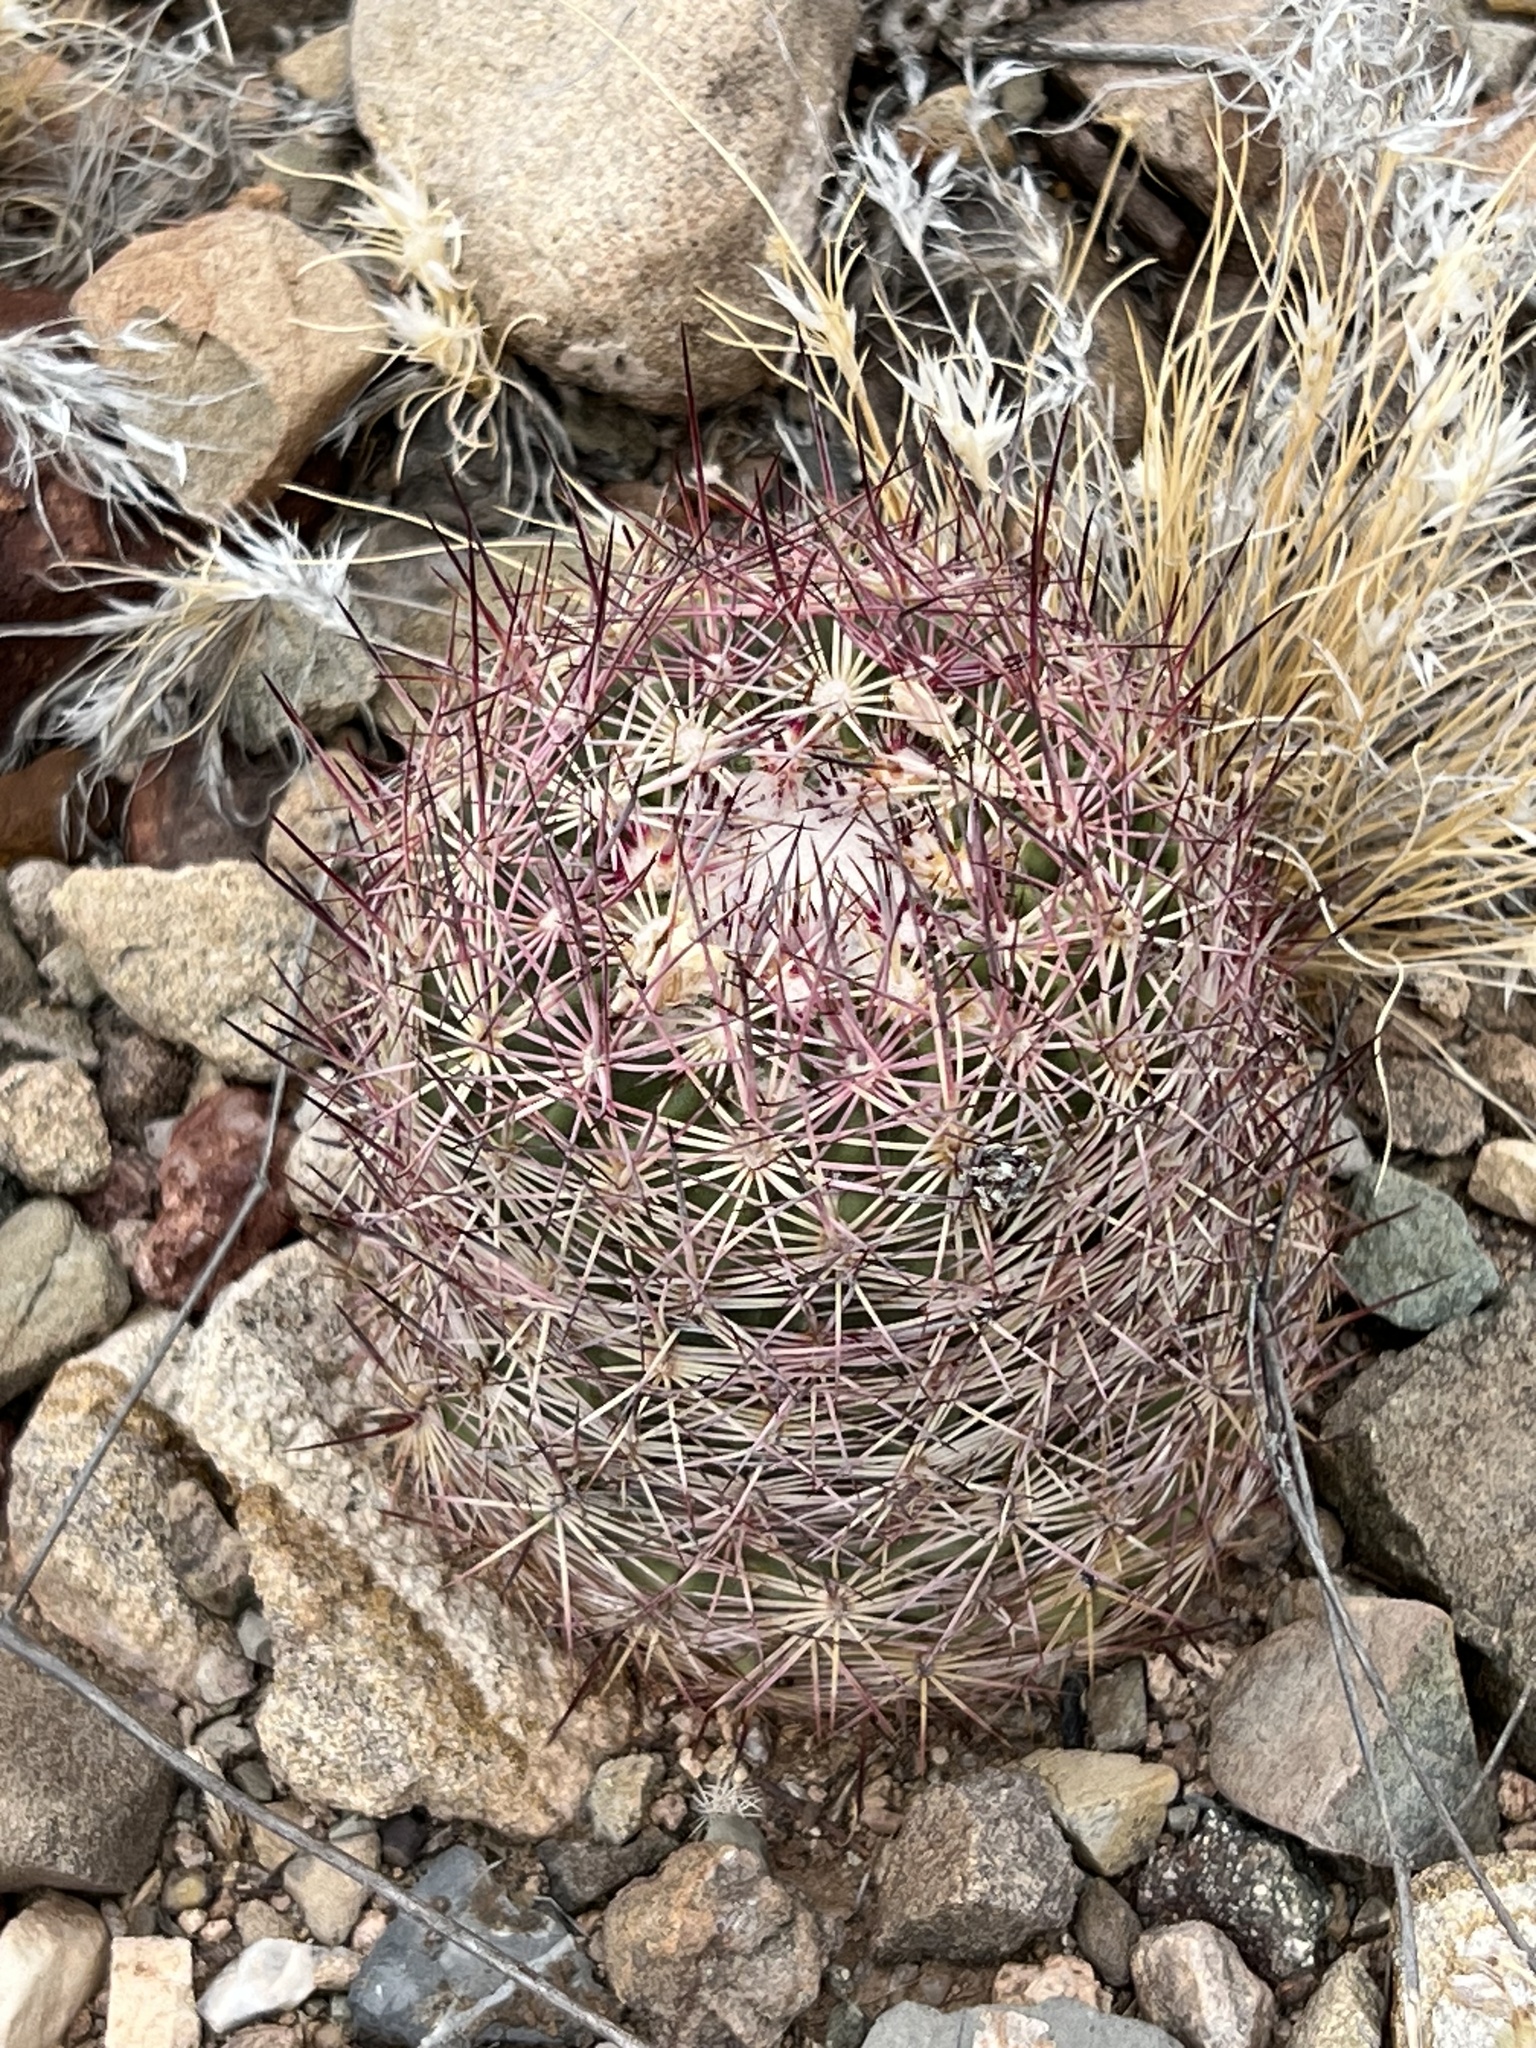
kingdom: Plantae
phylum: Tracheophyta
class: Magnoliopsida
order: Caryophyllales
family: Cactaceae
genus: Sclerocactus
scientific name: Sclerocactus johnsonii
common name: Eight-spine fishhook cactus
